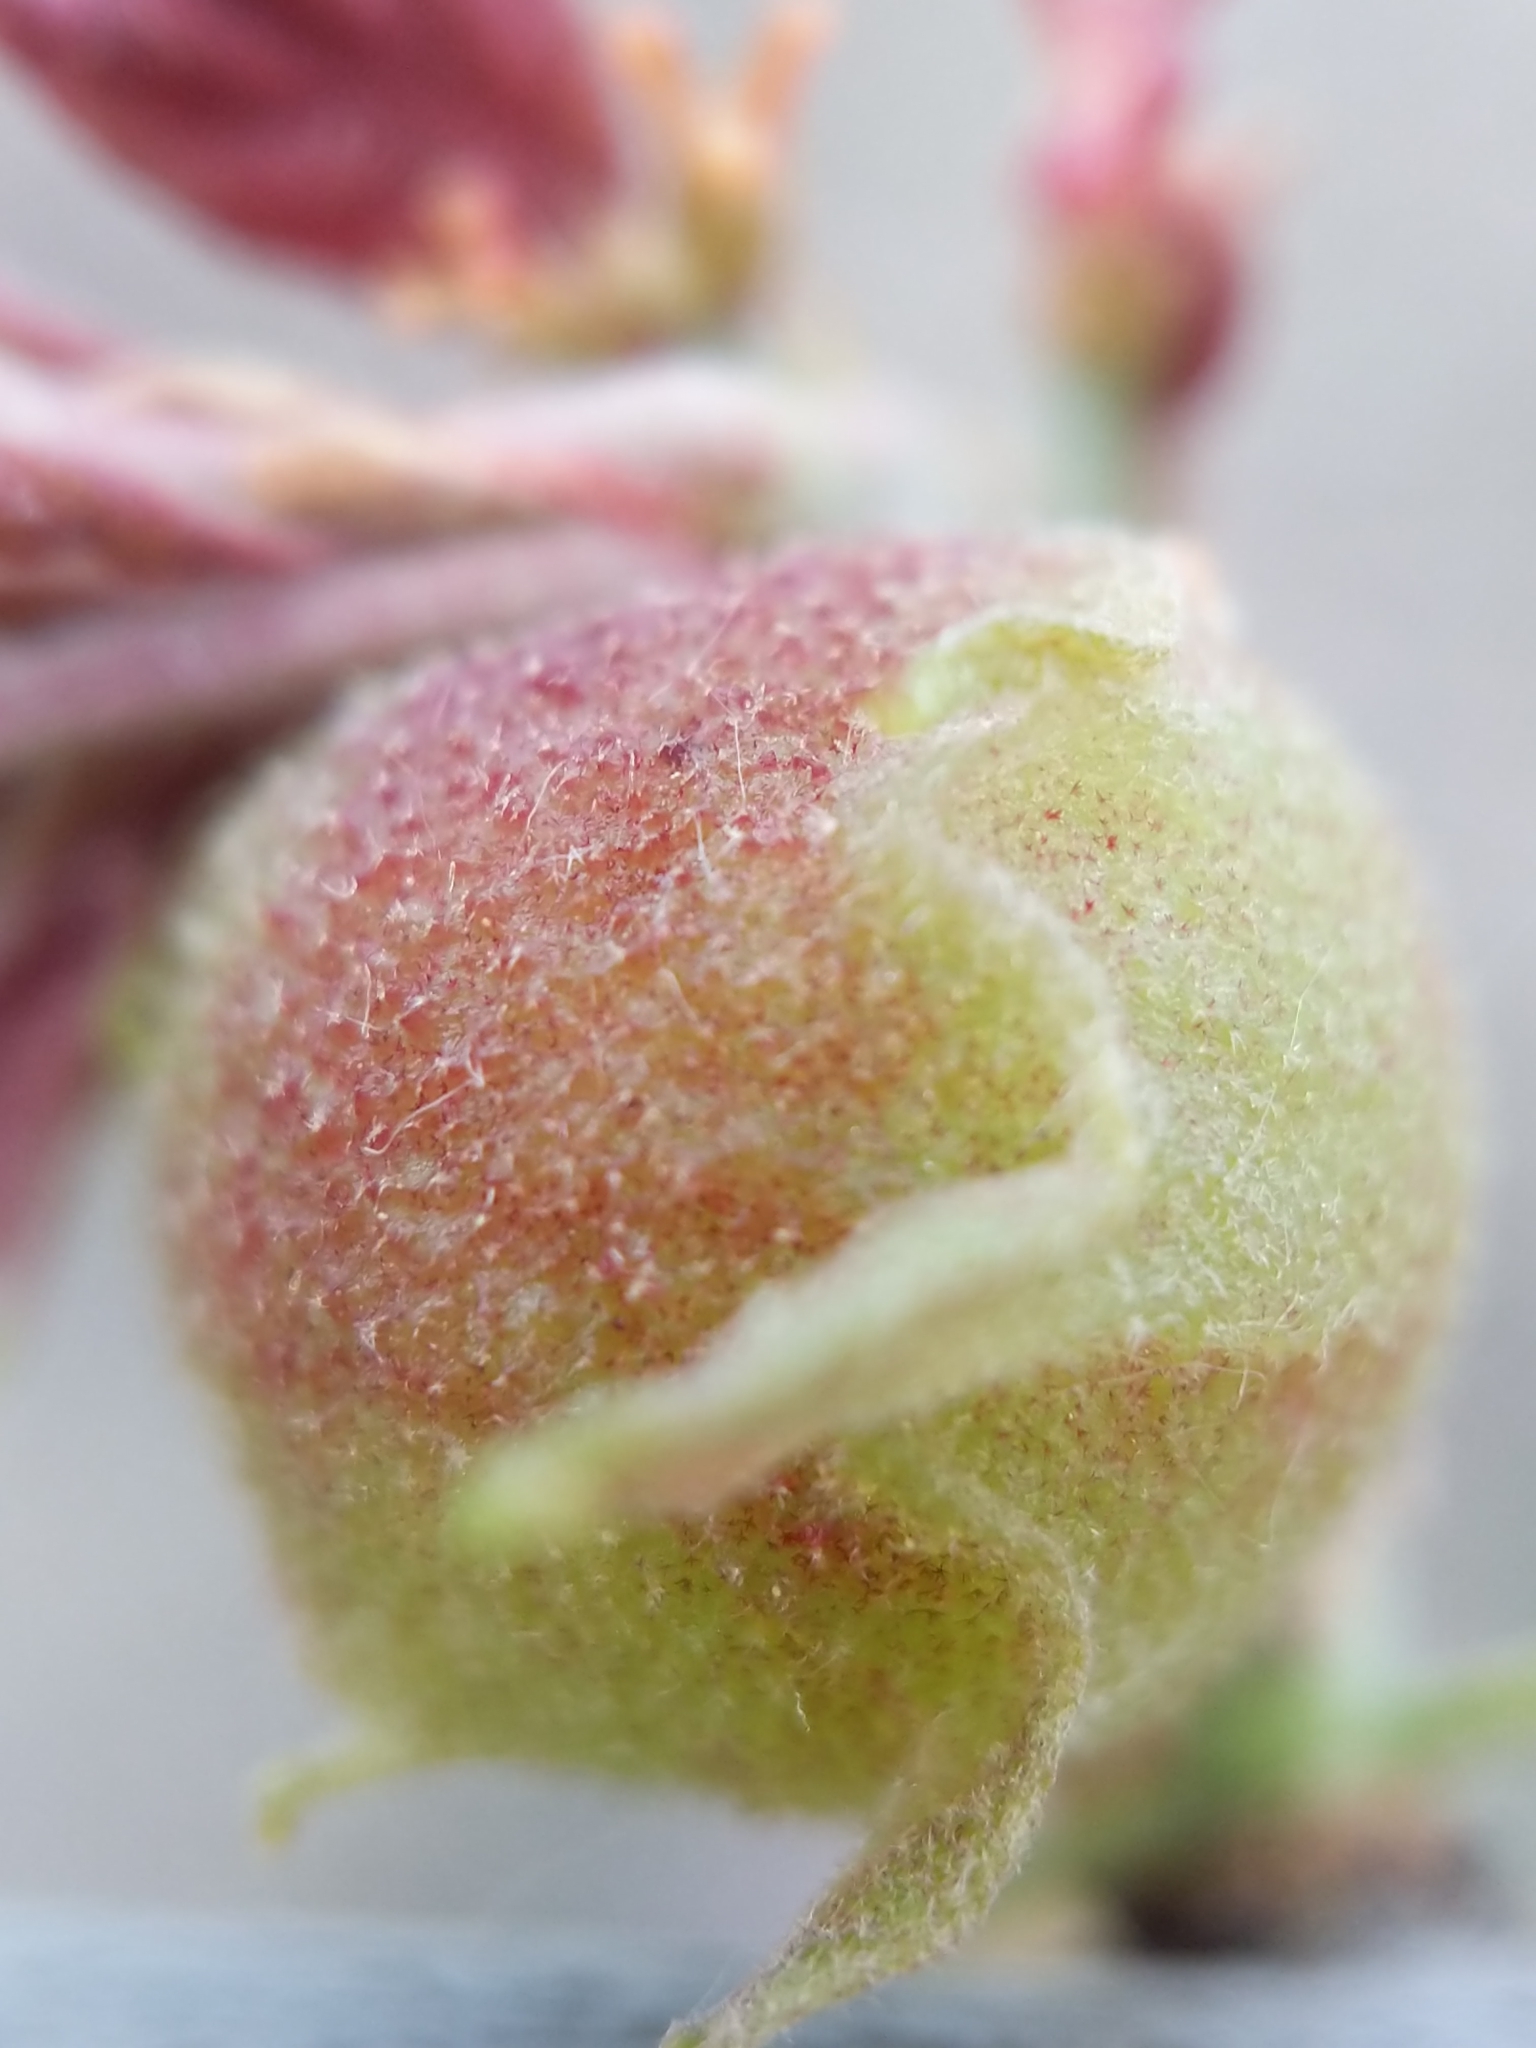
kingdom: Animalia
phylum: Arthropoda
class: Insecta
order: Hymenoptera
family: Cynipidae
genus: Dryocosmus
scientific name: Dryocosmus quercuspalustris
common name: Succulent oak gall wasp
